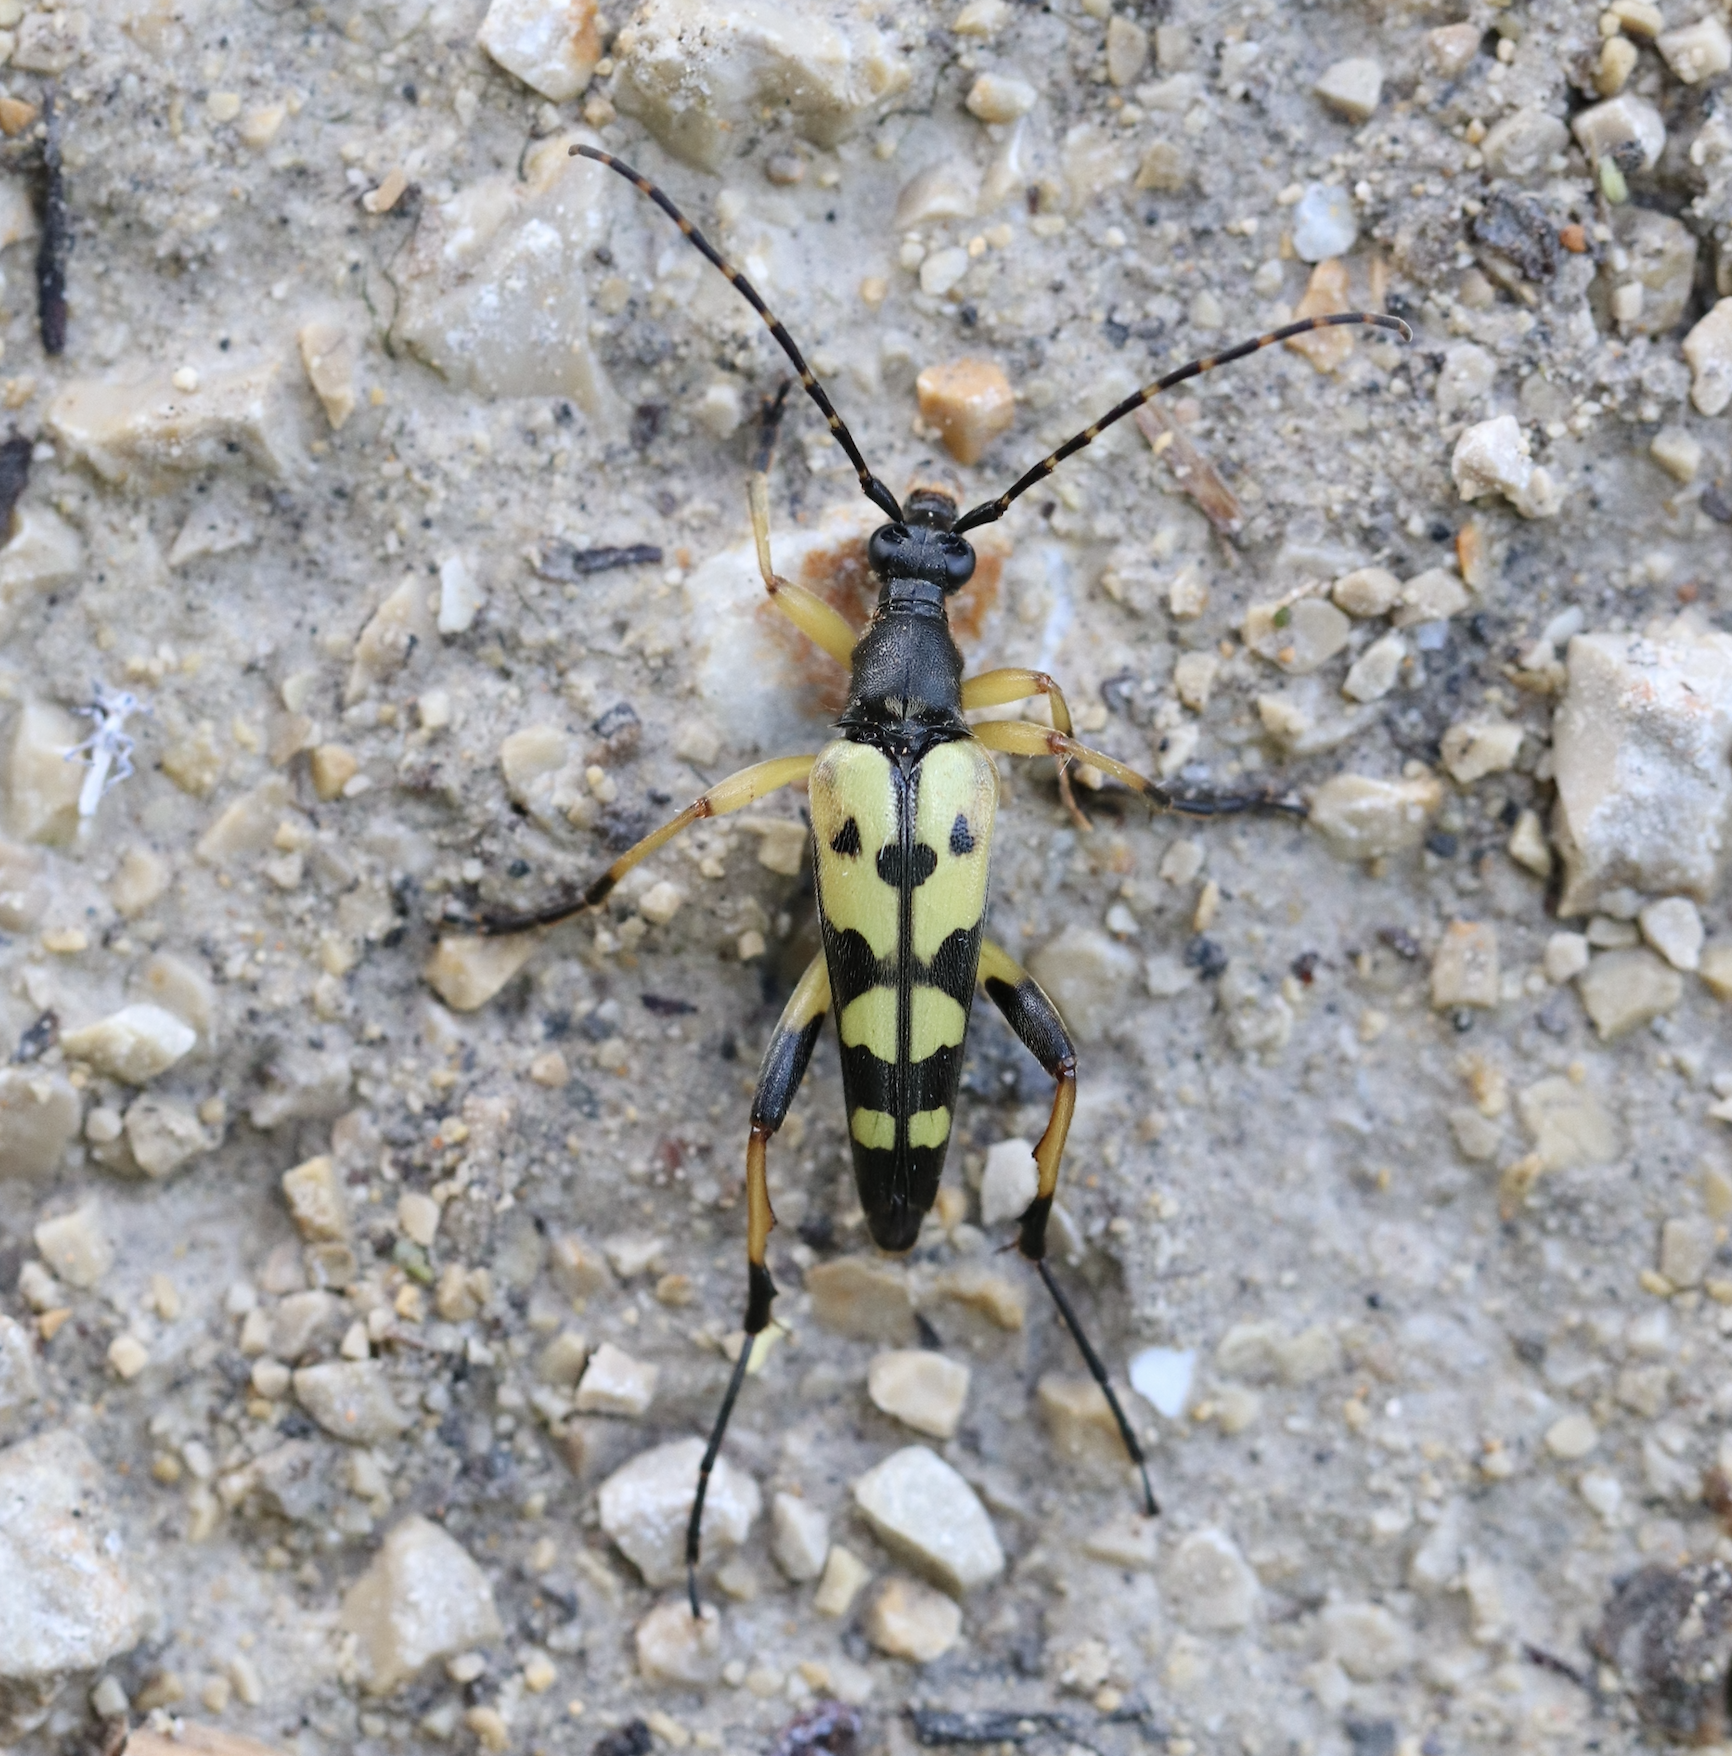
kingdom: Animalia
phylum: Arthropoda
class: Insecta
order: Coleoptera
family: Cerambycidae
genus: Rutpela
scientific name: Rutpela maculata
